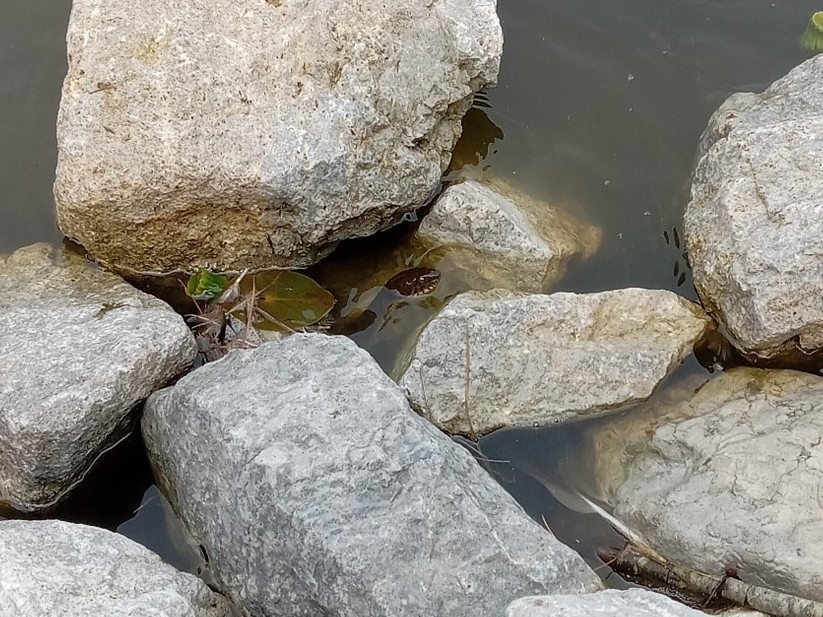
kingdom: Animalia
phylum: Chordata
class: Squamata
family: Colubridae
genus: Nerodia
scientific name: Nerodia sipedon
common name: Northern water snake
